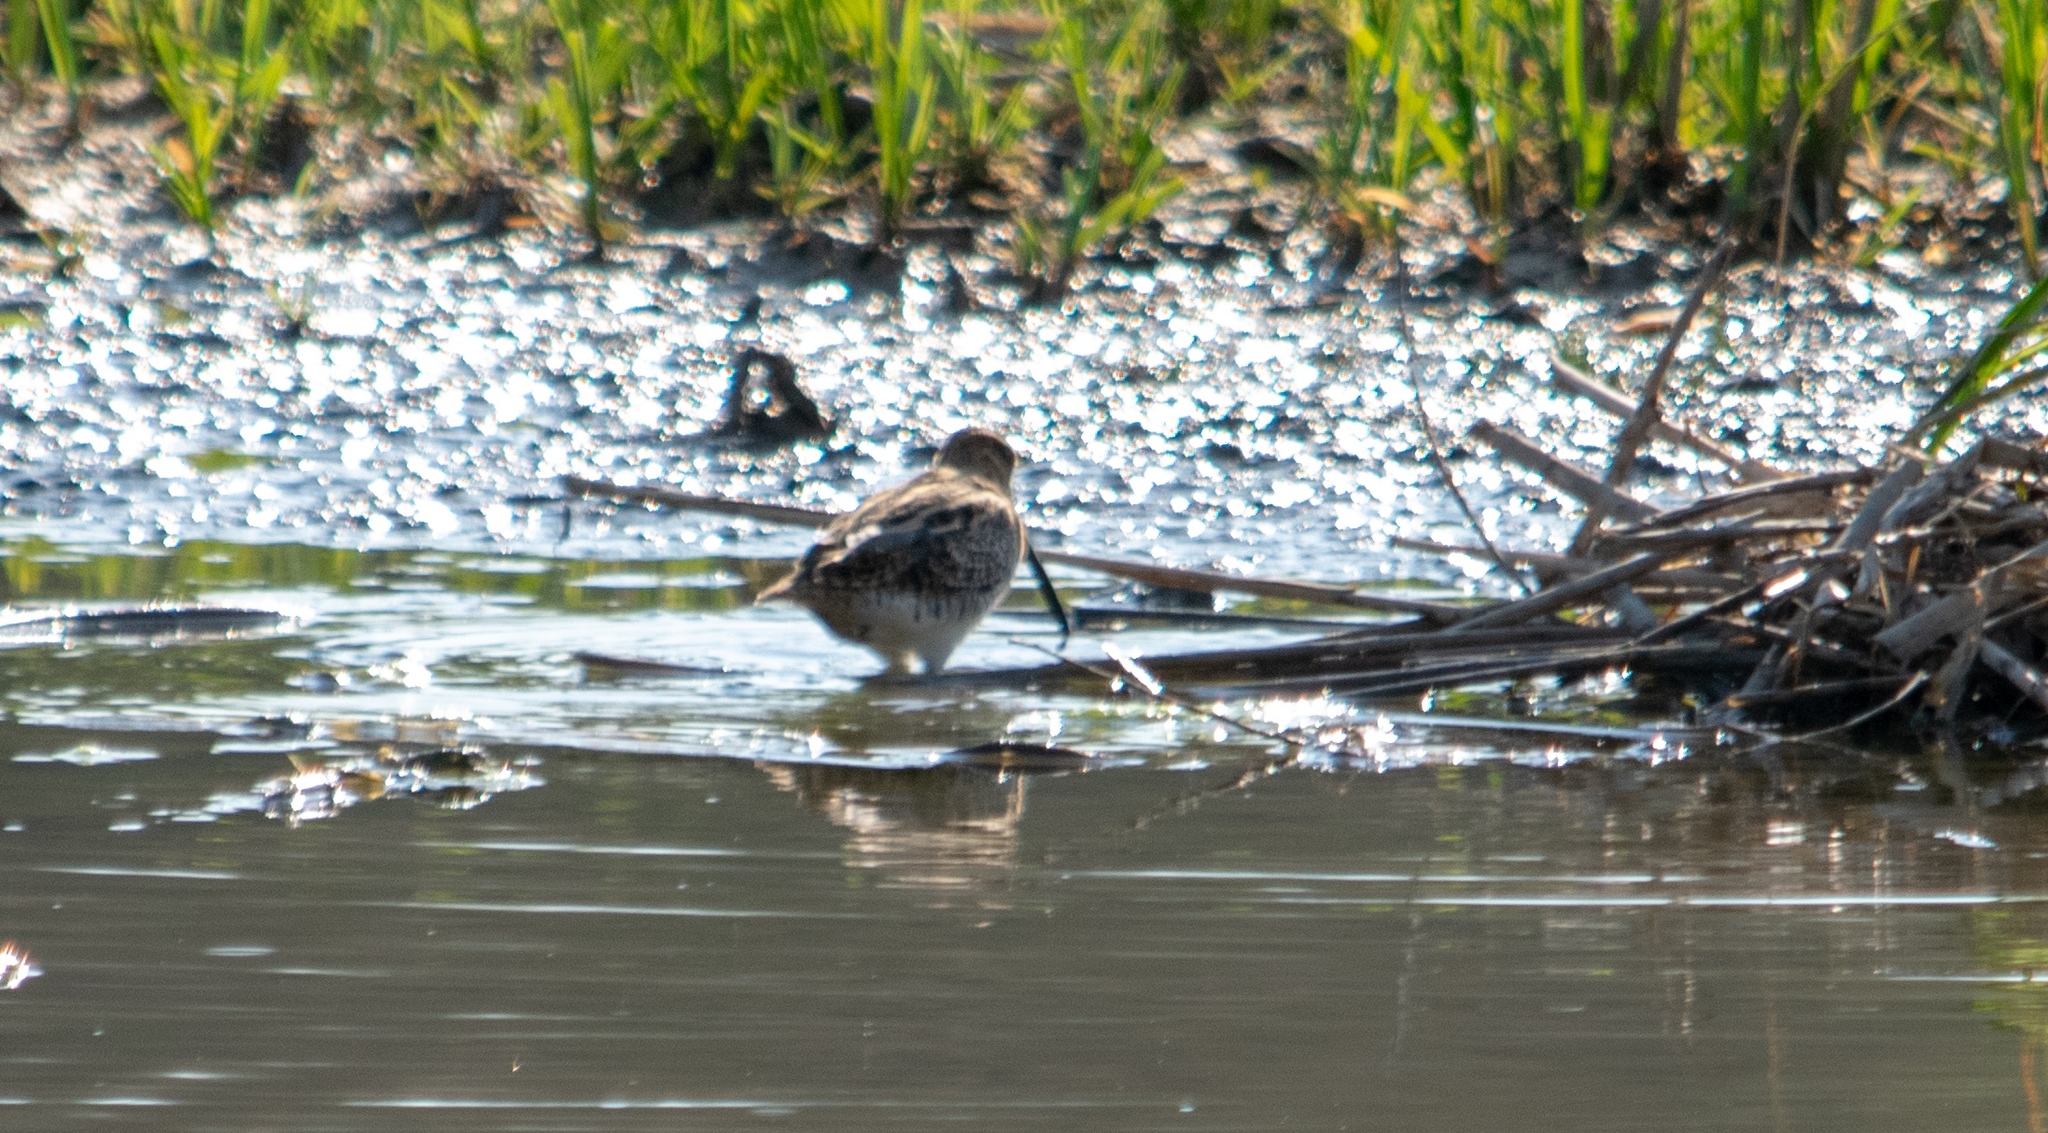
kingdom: Animalia
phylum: Chordata
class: Aves
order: Charadriiformes
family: Scolopacidae
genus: Gallinago
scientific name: Gallinago gallinago
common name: Common snipe
